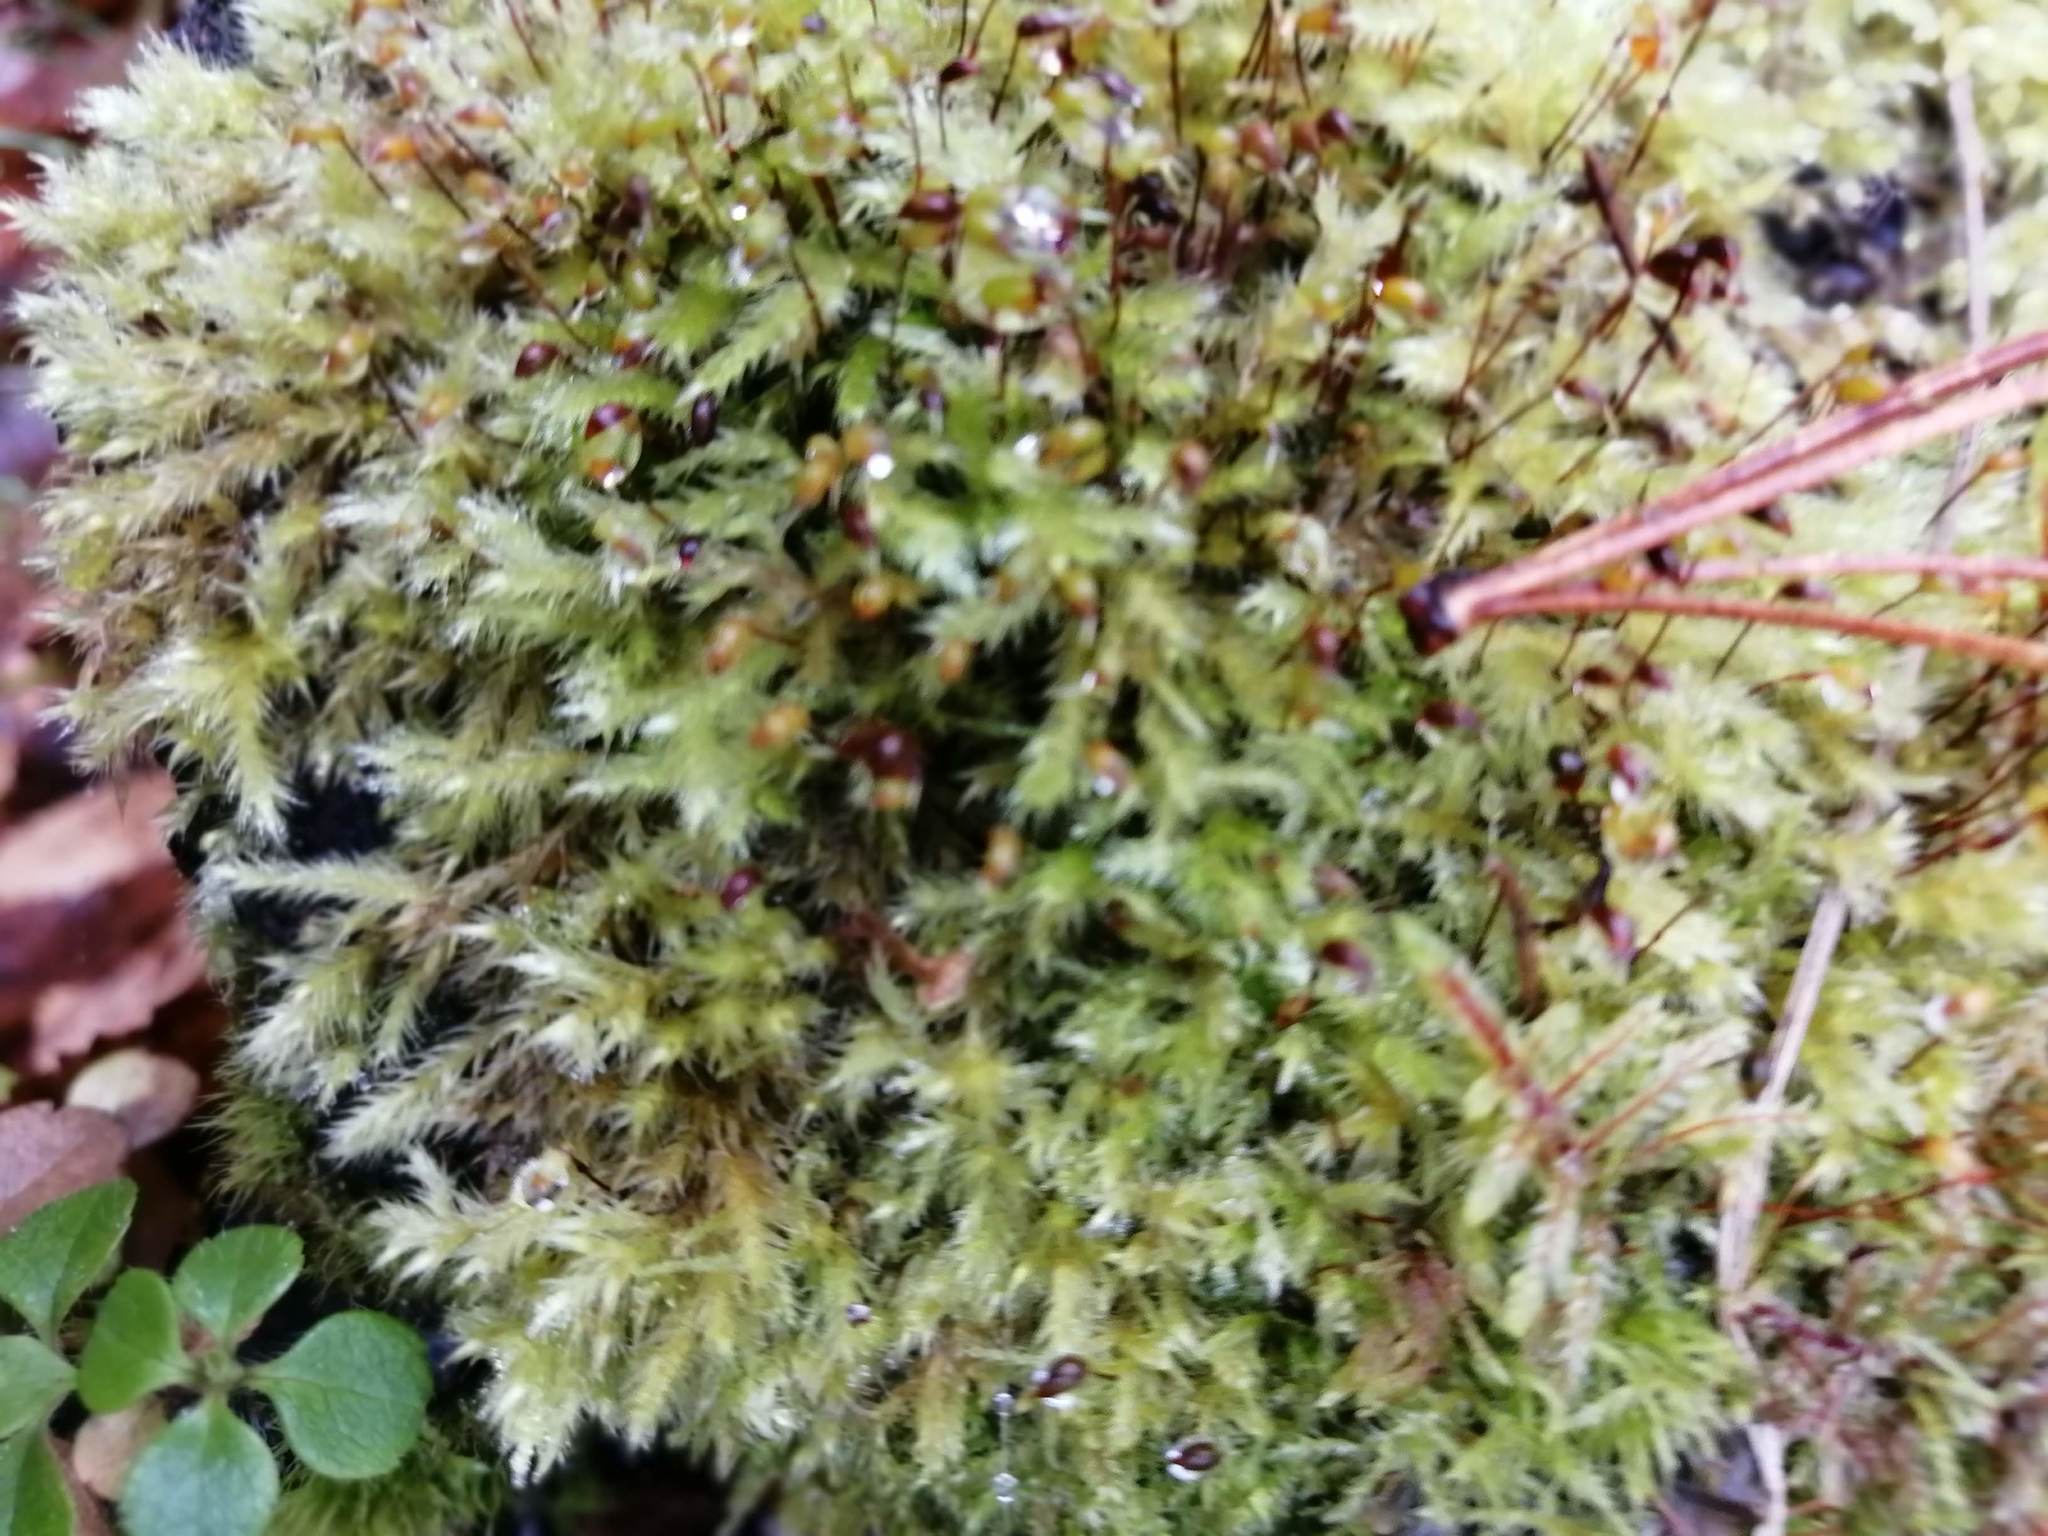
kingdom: Plantae
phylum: Bryophyta
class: Bryopsida
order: Hypnales
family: Brachytheciaceae
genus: Brachythecium
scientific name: Brachythecium rutabulum
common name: Rough-stalked feather-moss
